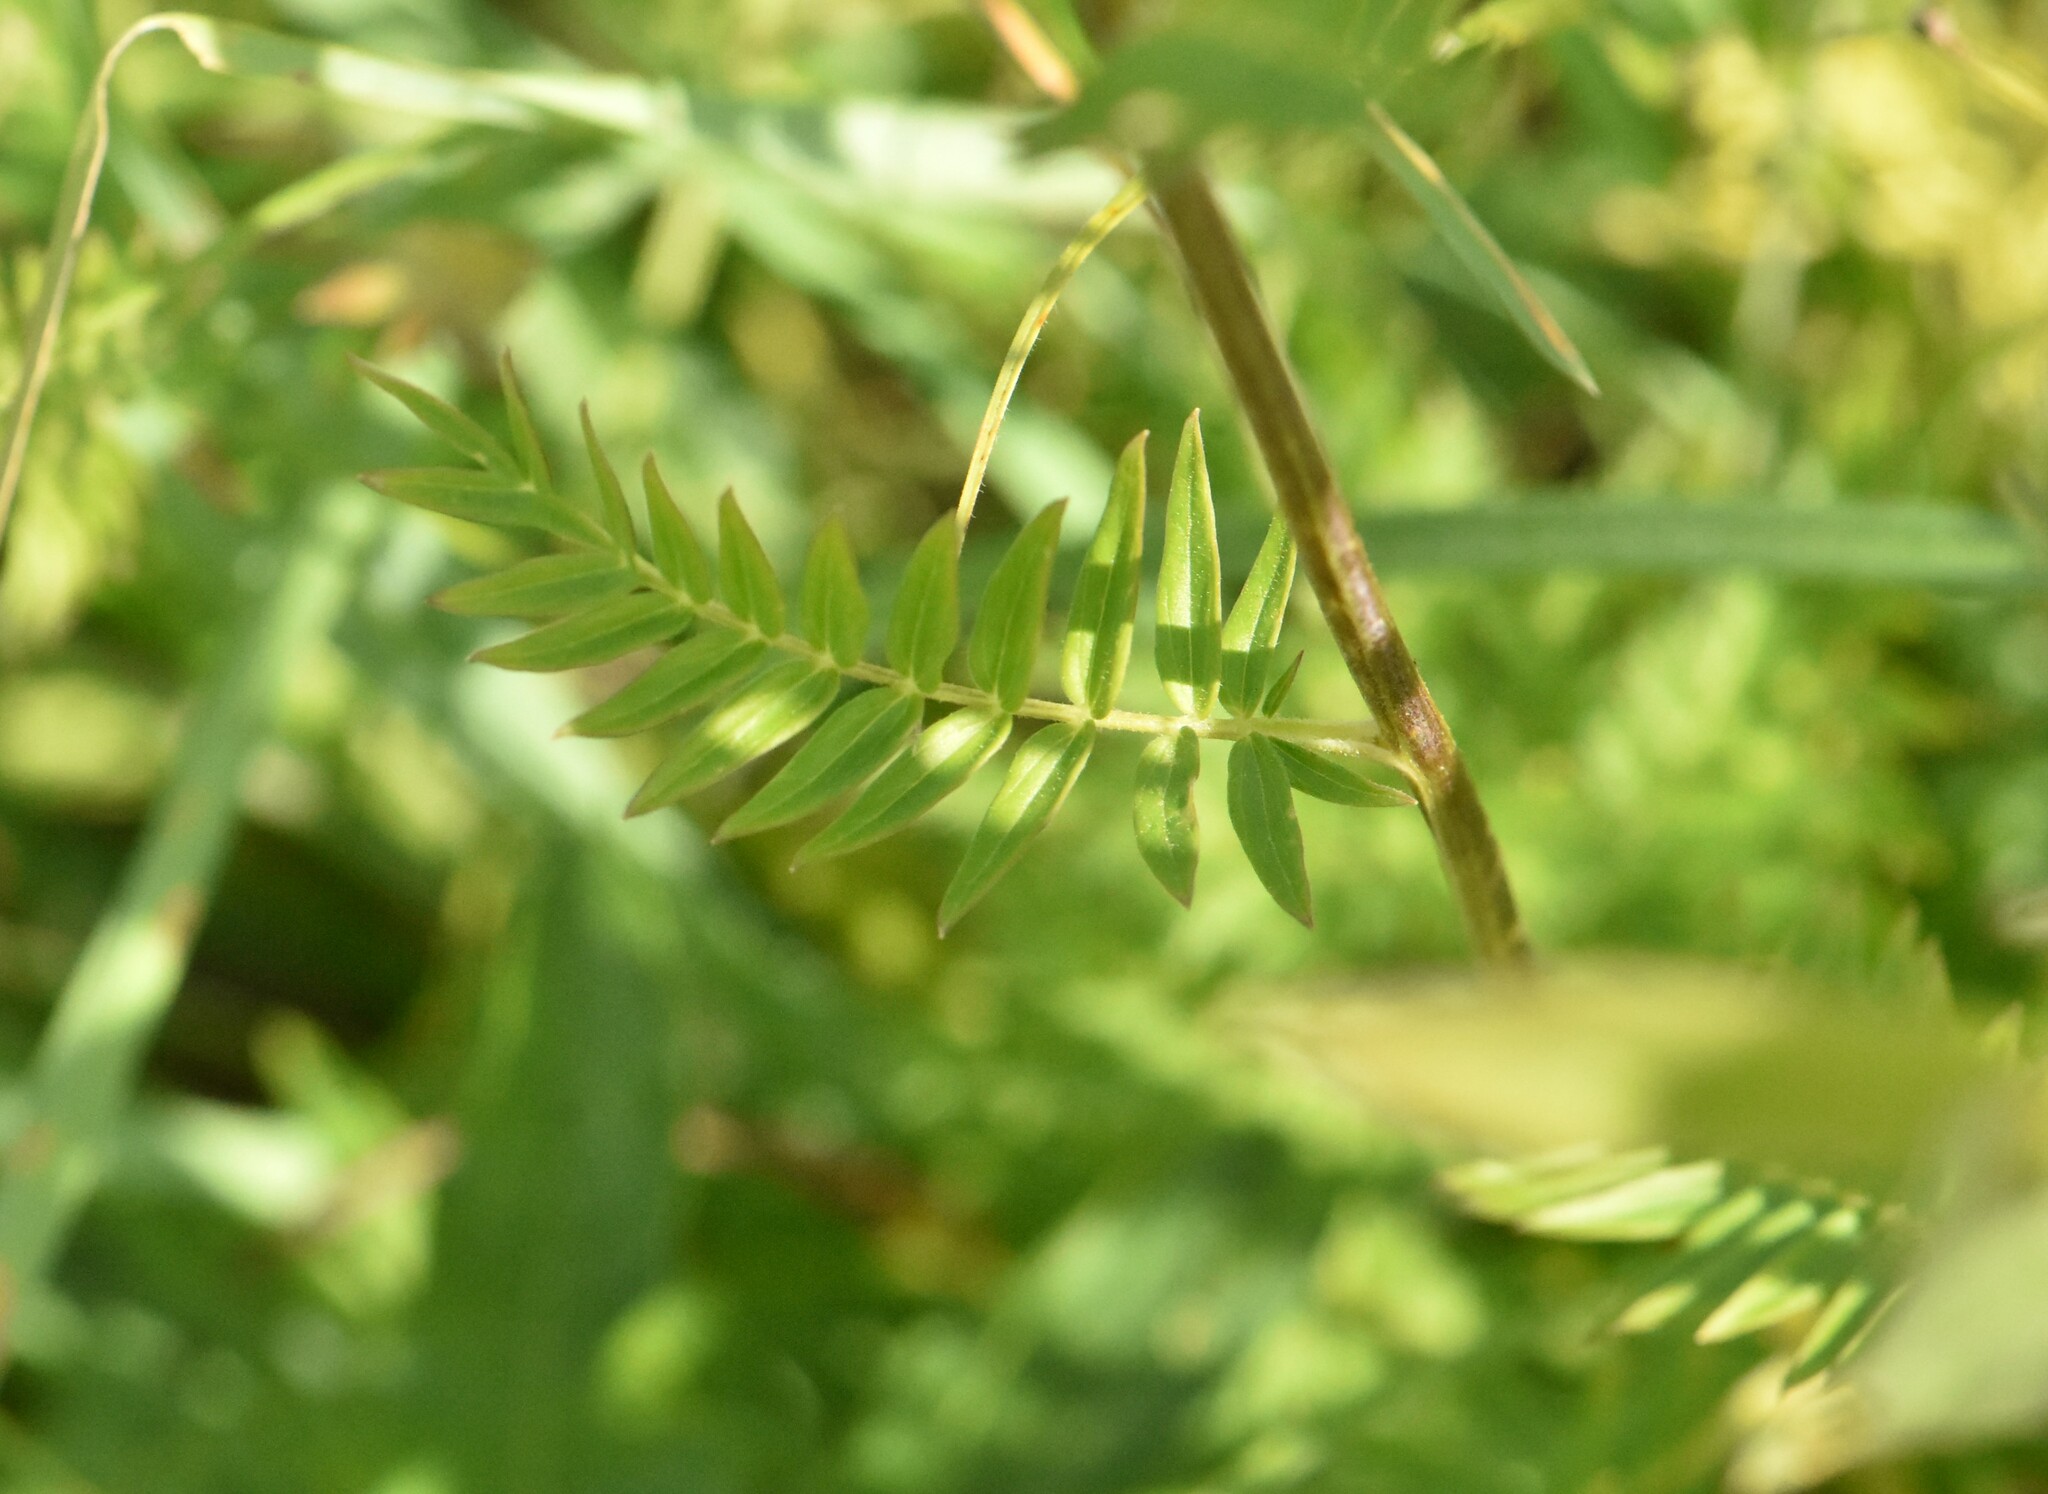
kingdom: Plantae
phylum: Tracheophyta
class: Magnoliopsida
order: Ericales
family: Polemoniaceae
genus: Polemonium
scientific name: Polemonium caeruleum
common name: Jacob's-ladder
